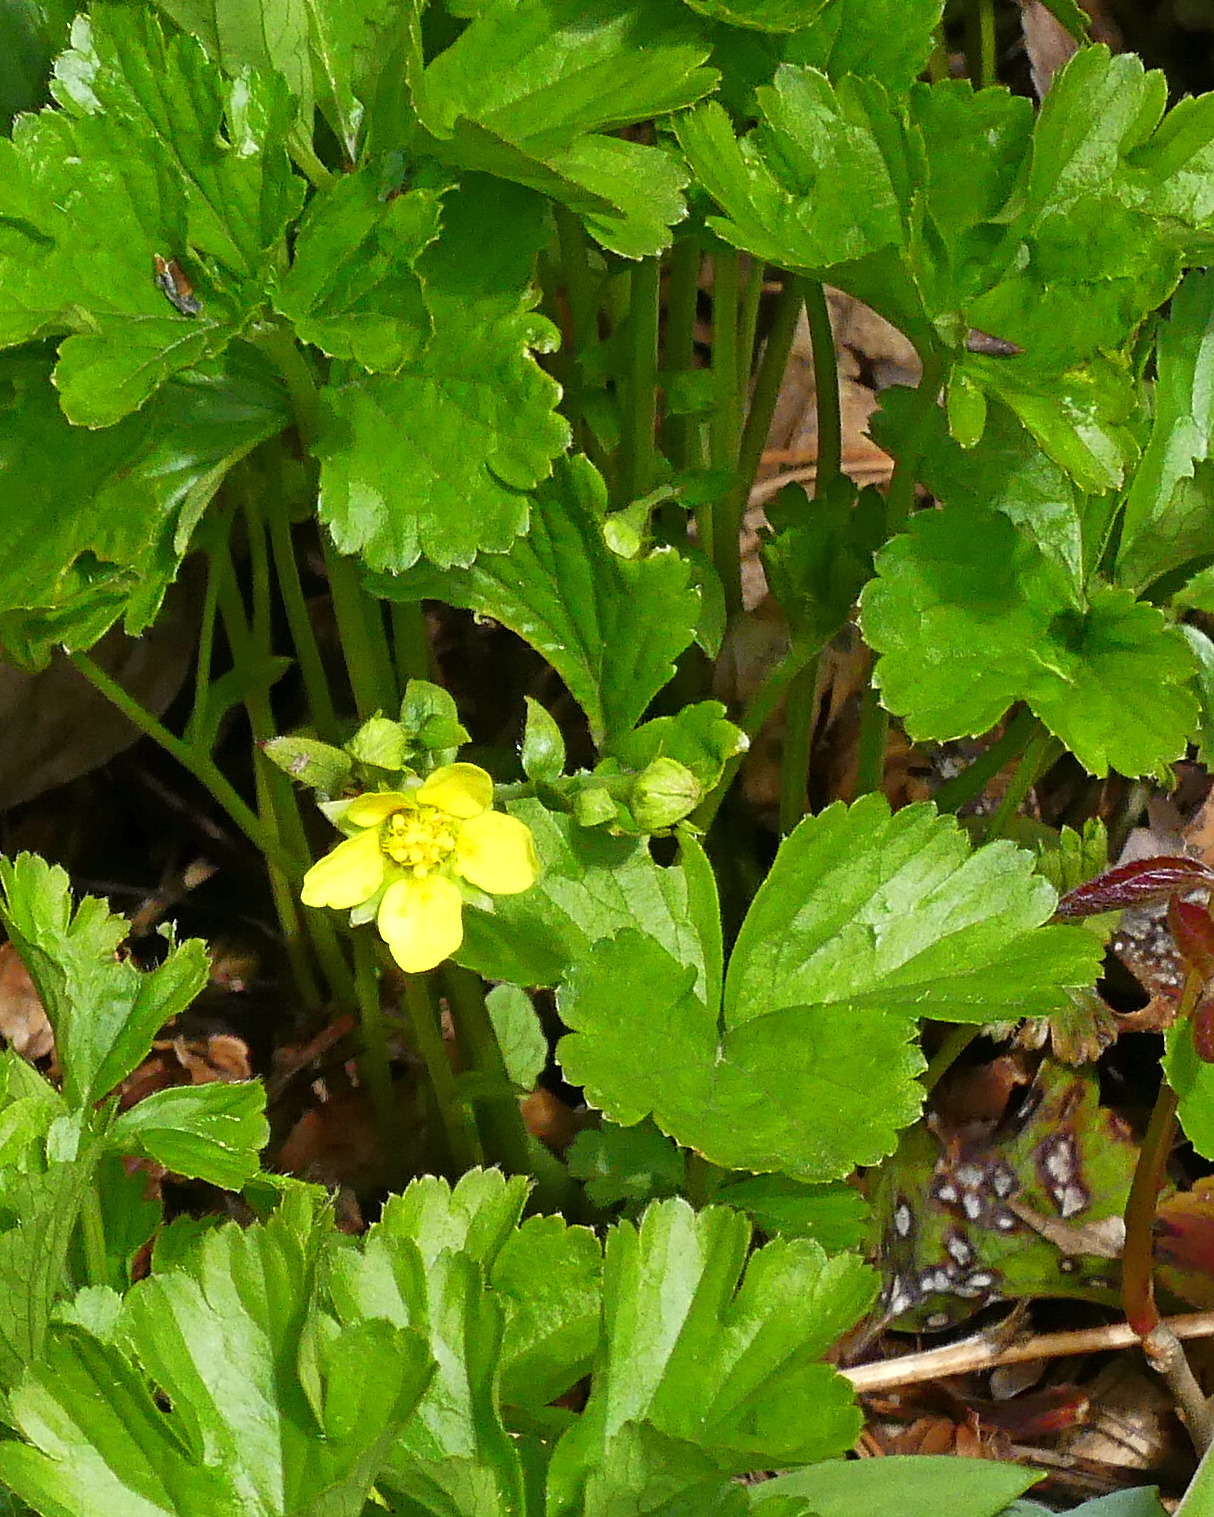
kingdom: Plantae
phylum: Tracheophyta
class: Magnoliopsida
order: Rosales
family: Rosaceae
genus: Geum
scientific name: Geum fragarioides
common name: Appalachian barren strawberry
